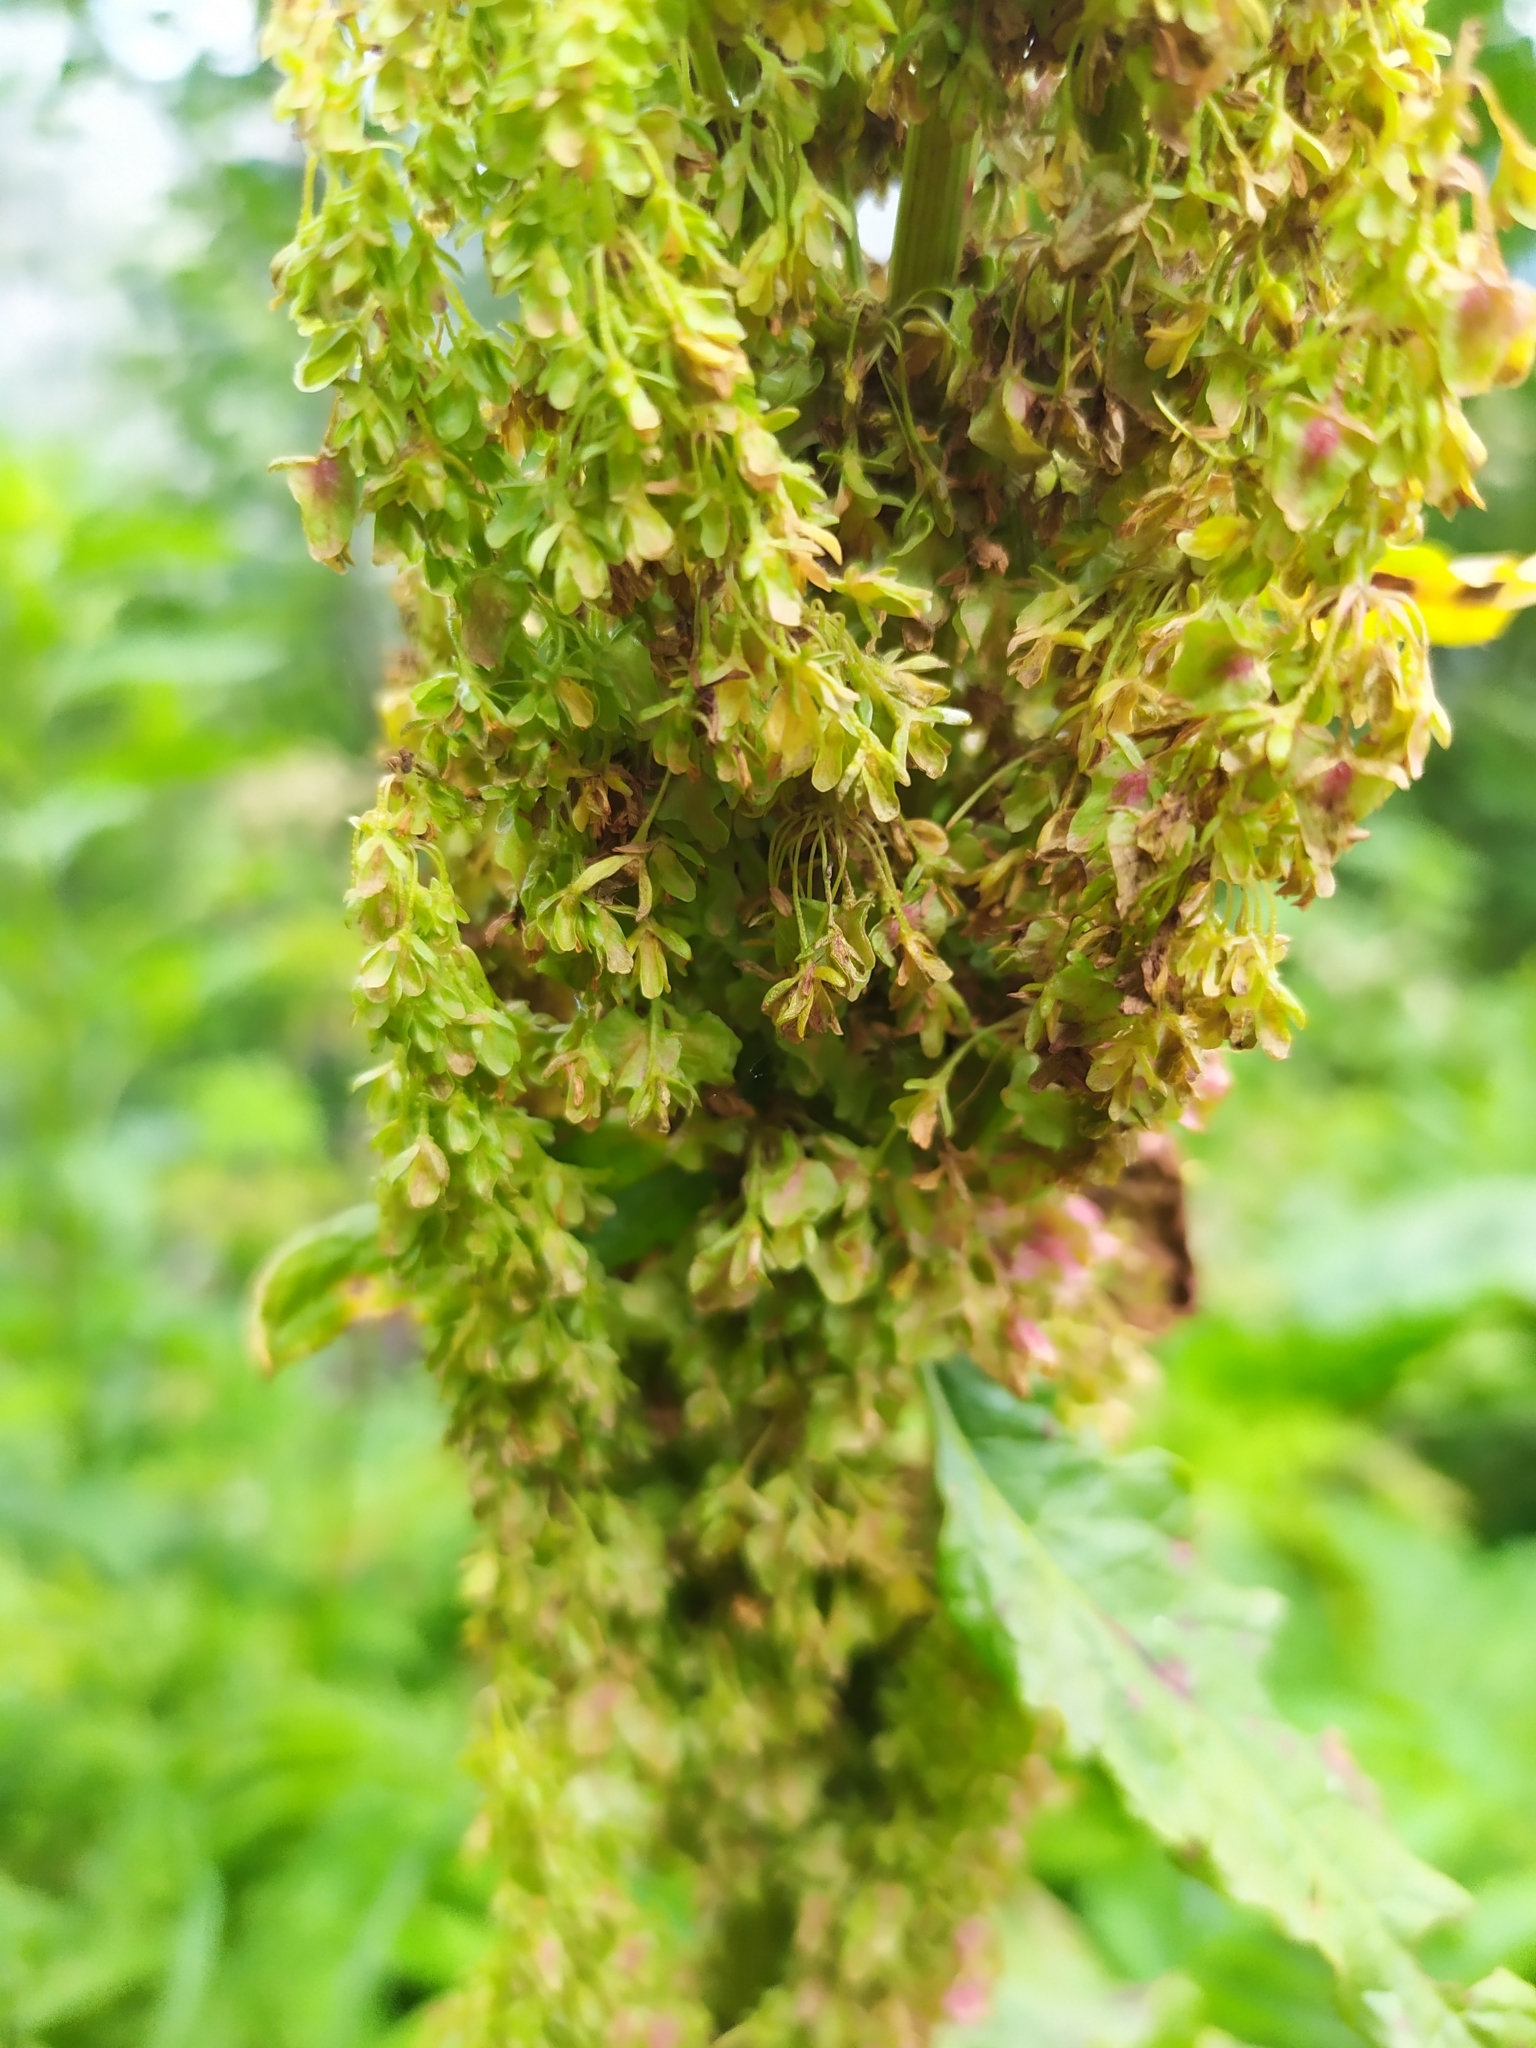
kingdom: Plantae
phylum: Tracheophyta
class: Magnoliopsida
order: Caryophyllales
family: Polygonaceae
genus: Rumex
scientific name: Rumex alpinus
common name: Alpine dock
